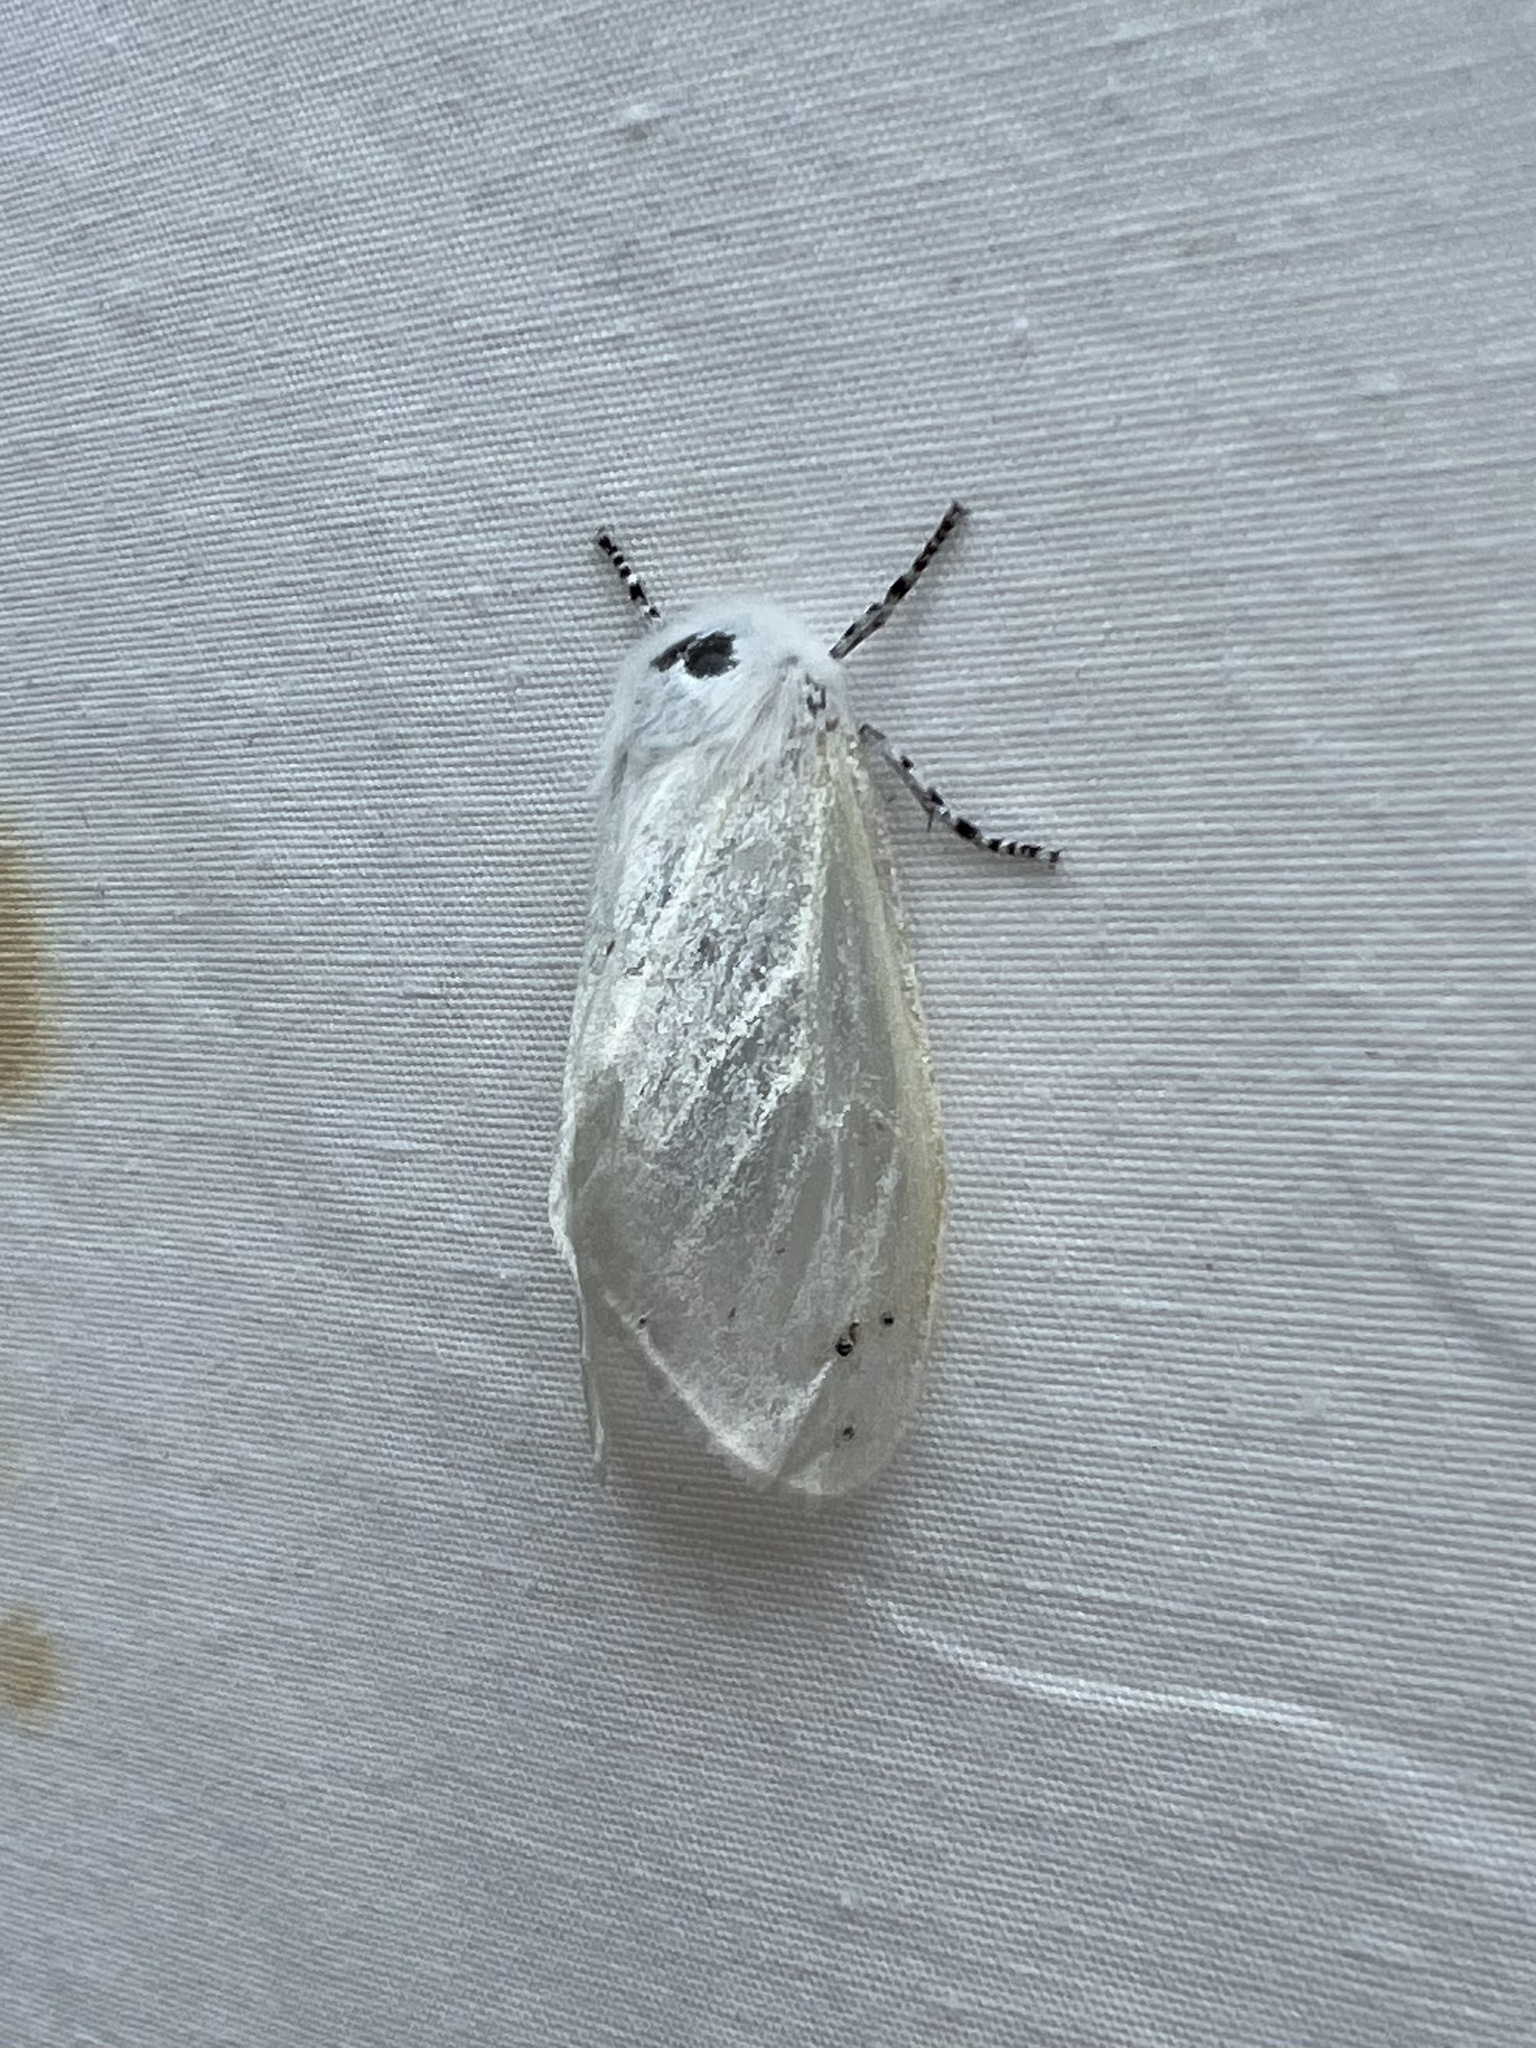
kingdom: Animalia
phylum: Arthropoda
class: Insecta
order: Lepidoptera
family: Erebidae
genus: Leucoma
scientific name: Leucoma salicis
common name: White satin moth
